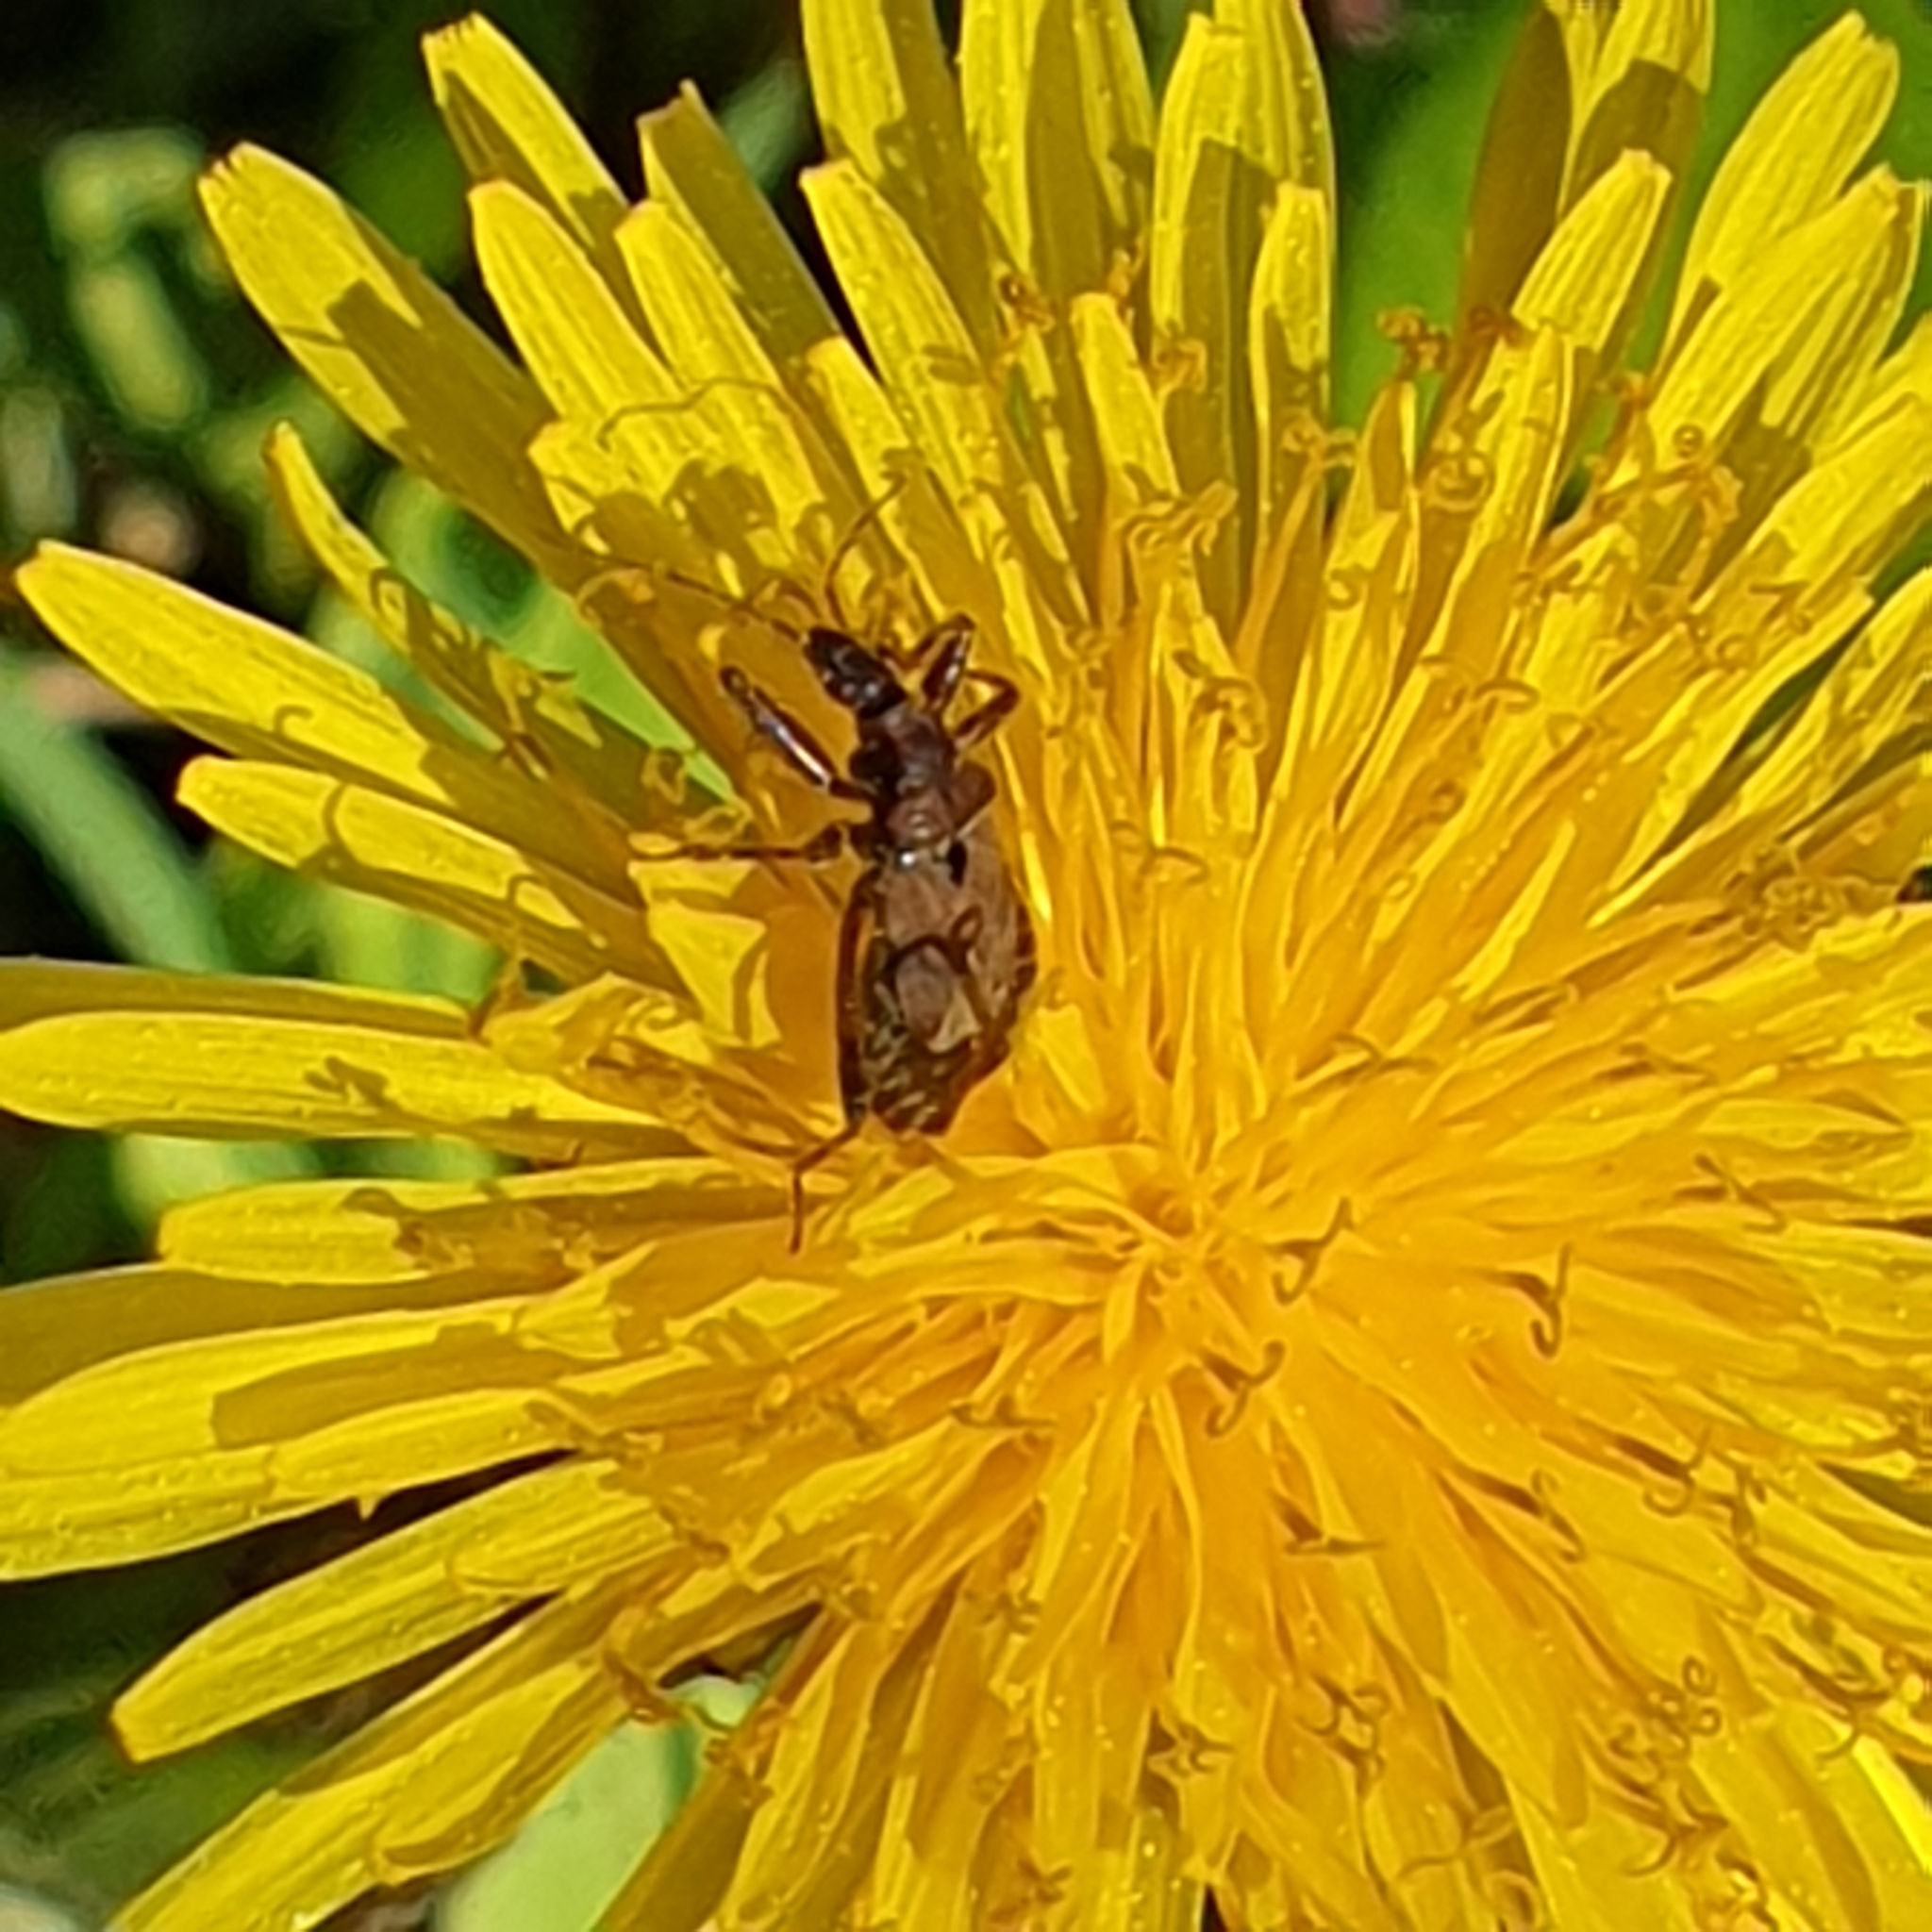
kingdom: Animalia
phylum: Arthropoda
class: Insecta
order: Hemiptera
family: Nabidae
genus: Himacerus
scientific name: Himacerus mirmicoides
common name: Ant damsel bug
